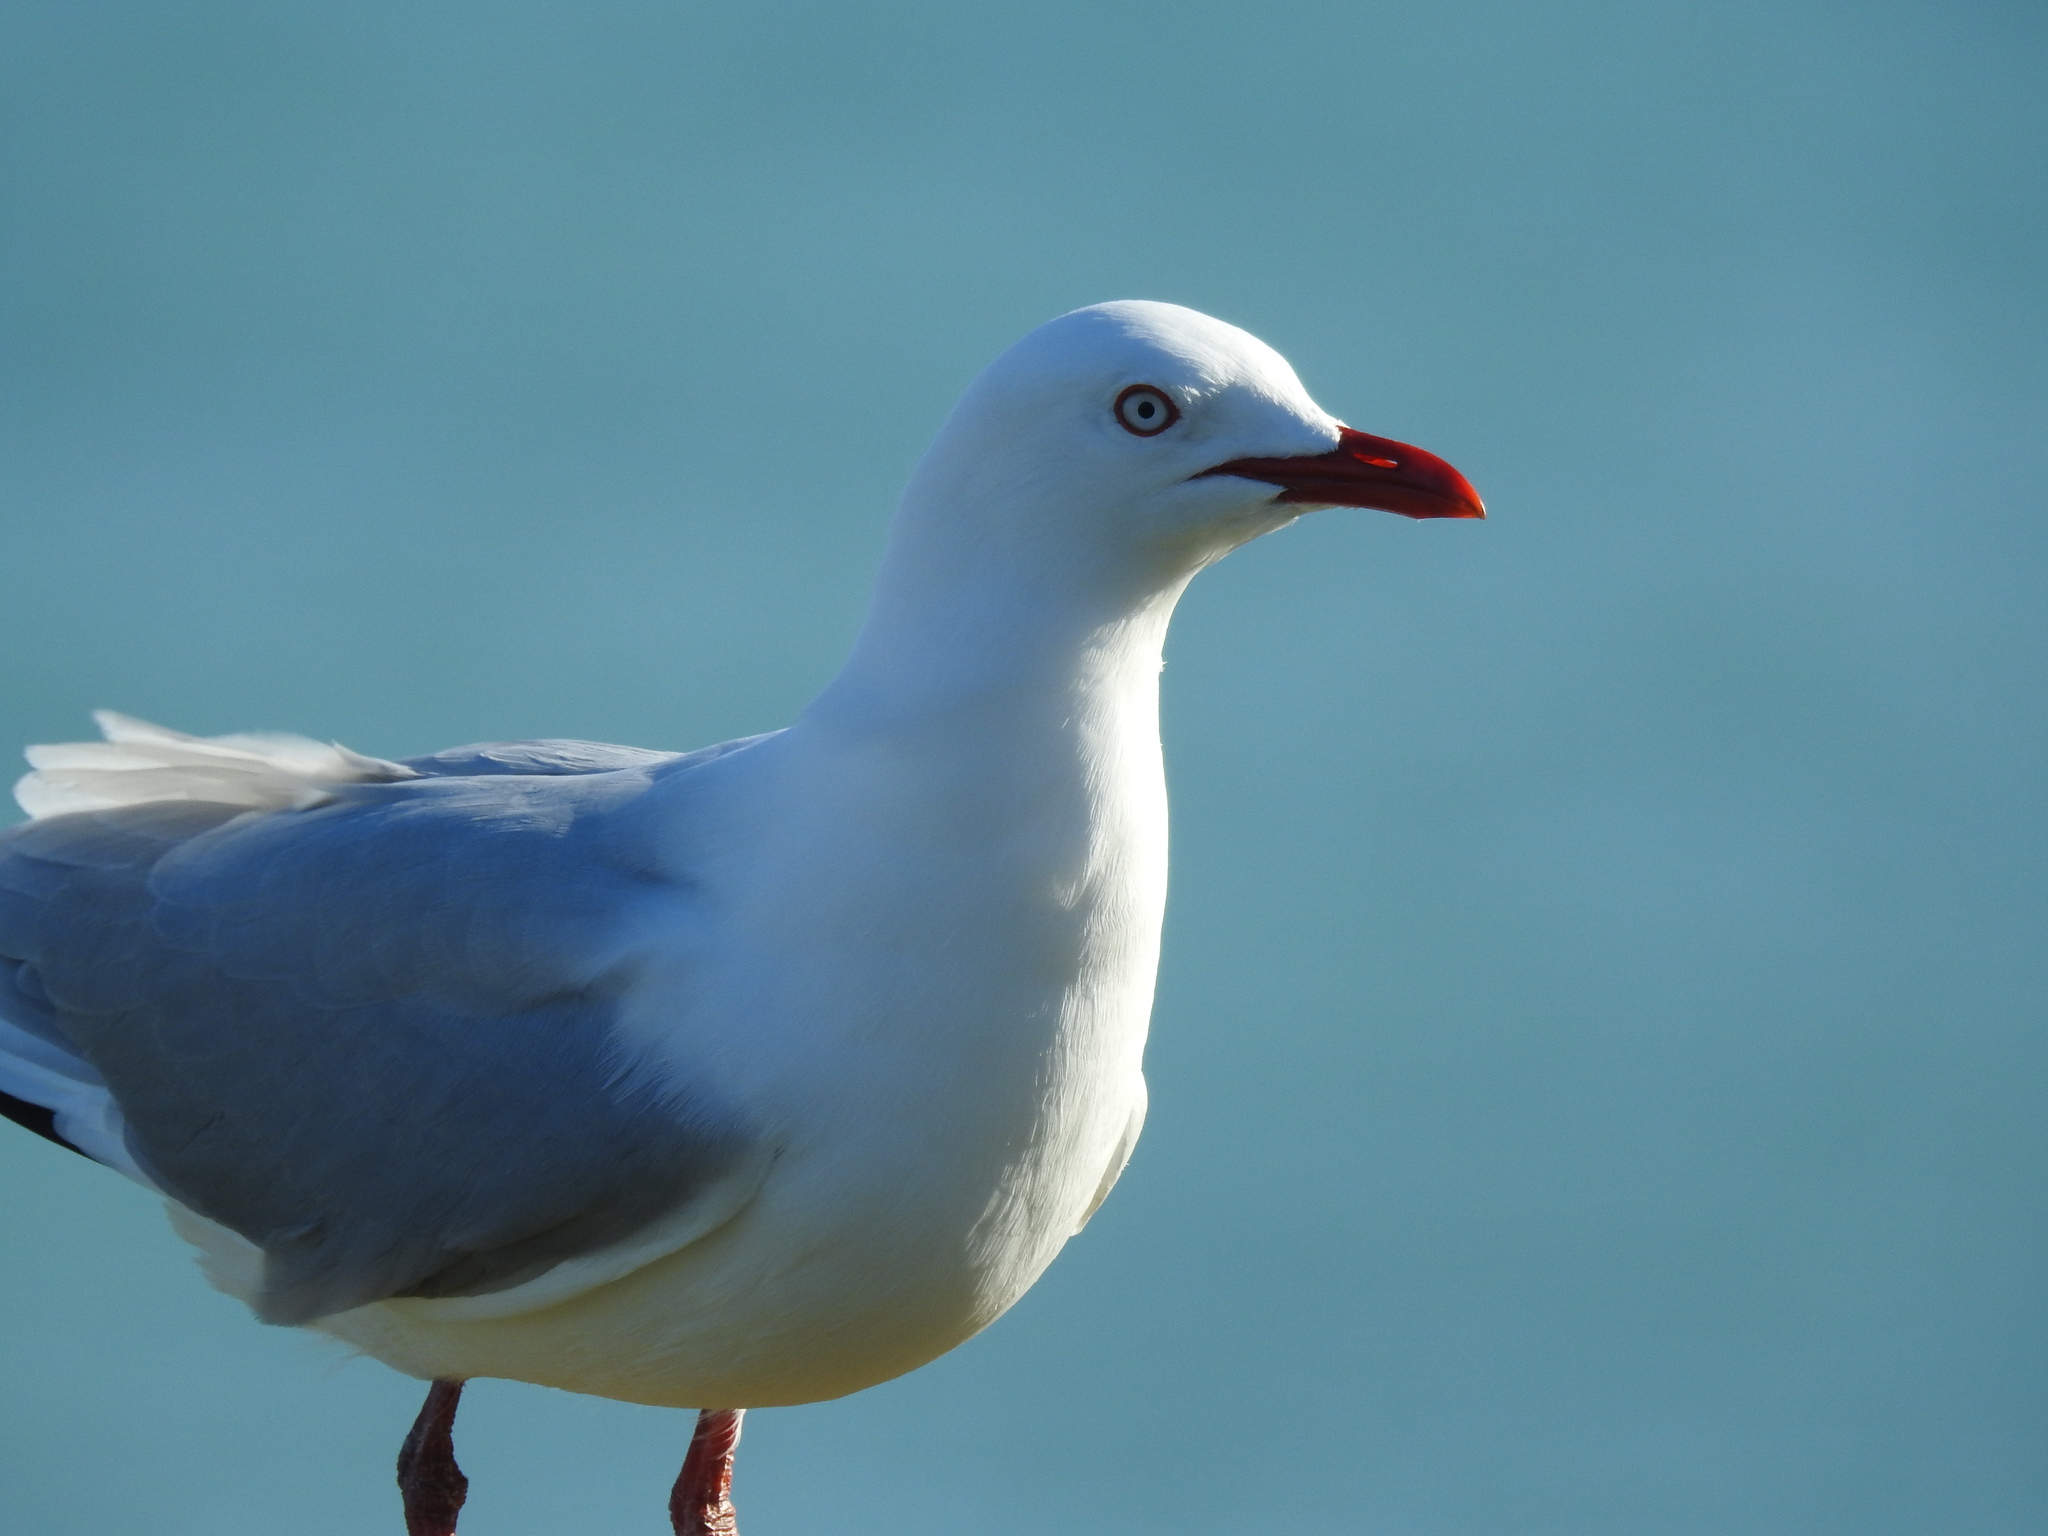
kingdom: Animalia
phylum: Chordata
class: Aves
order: Charadriiformes
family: Laridae
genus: Chroicocephalus
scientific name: Chroicocephalus novaehollandiae
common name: Silver gull
